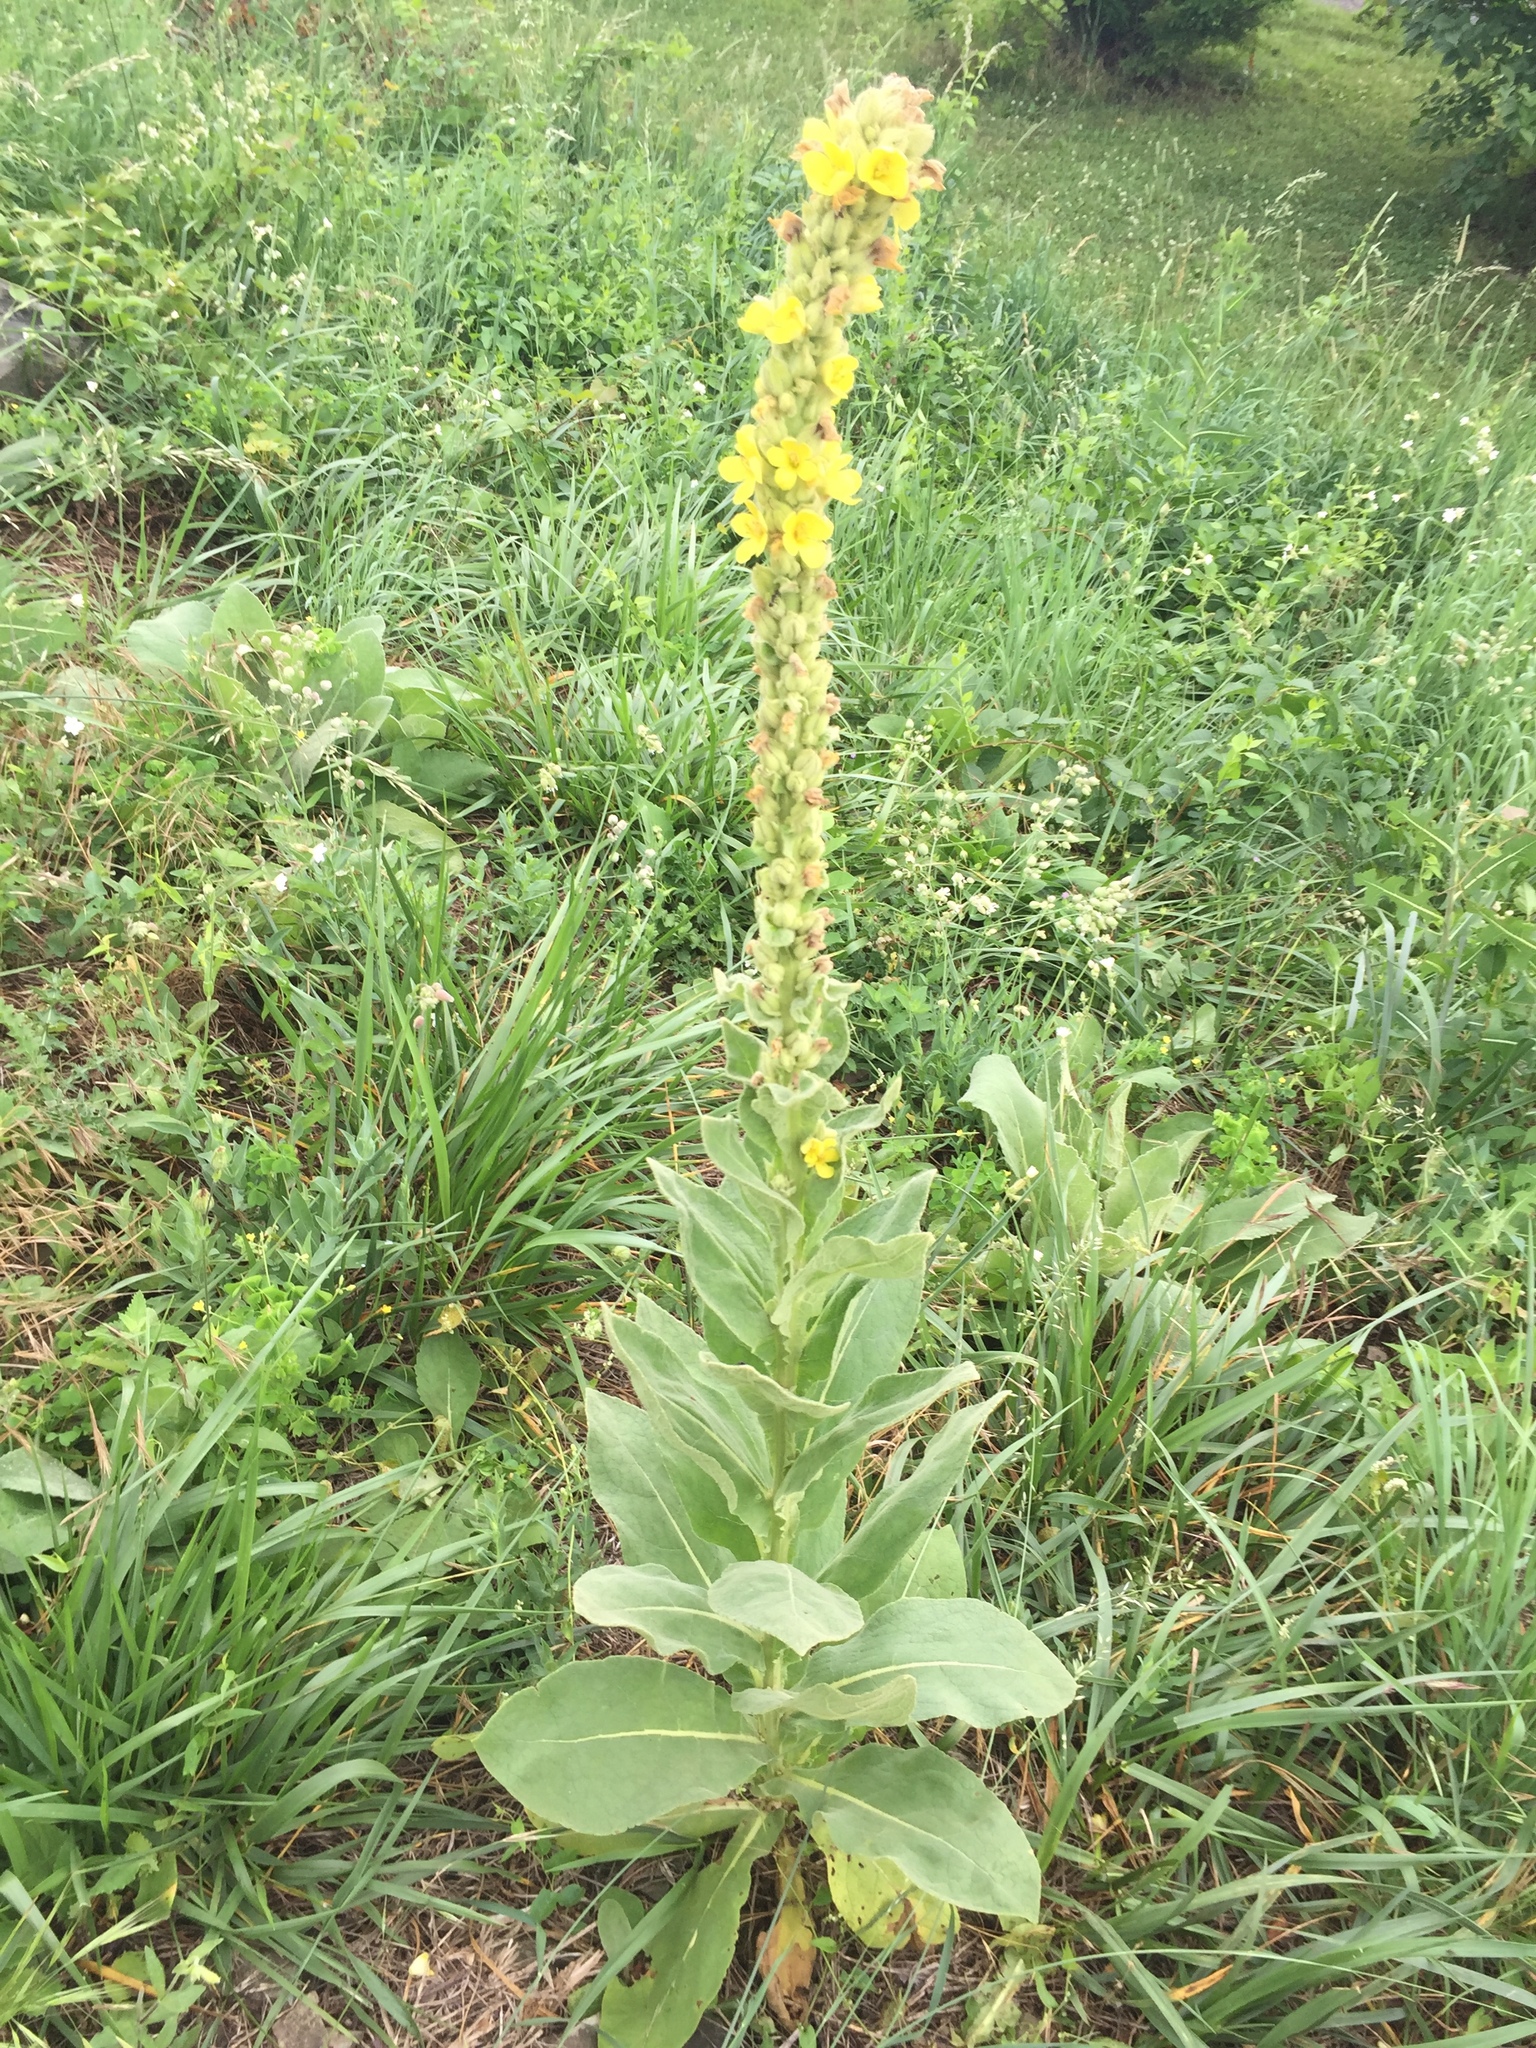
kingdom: Plantae
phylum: Tracheophyta
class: Magnoliopsida
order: Lamiales
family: Scrophulariaceae
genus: Verbascum
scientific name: Verbascum thapsus
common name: Common mullein
